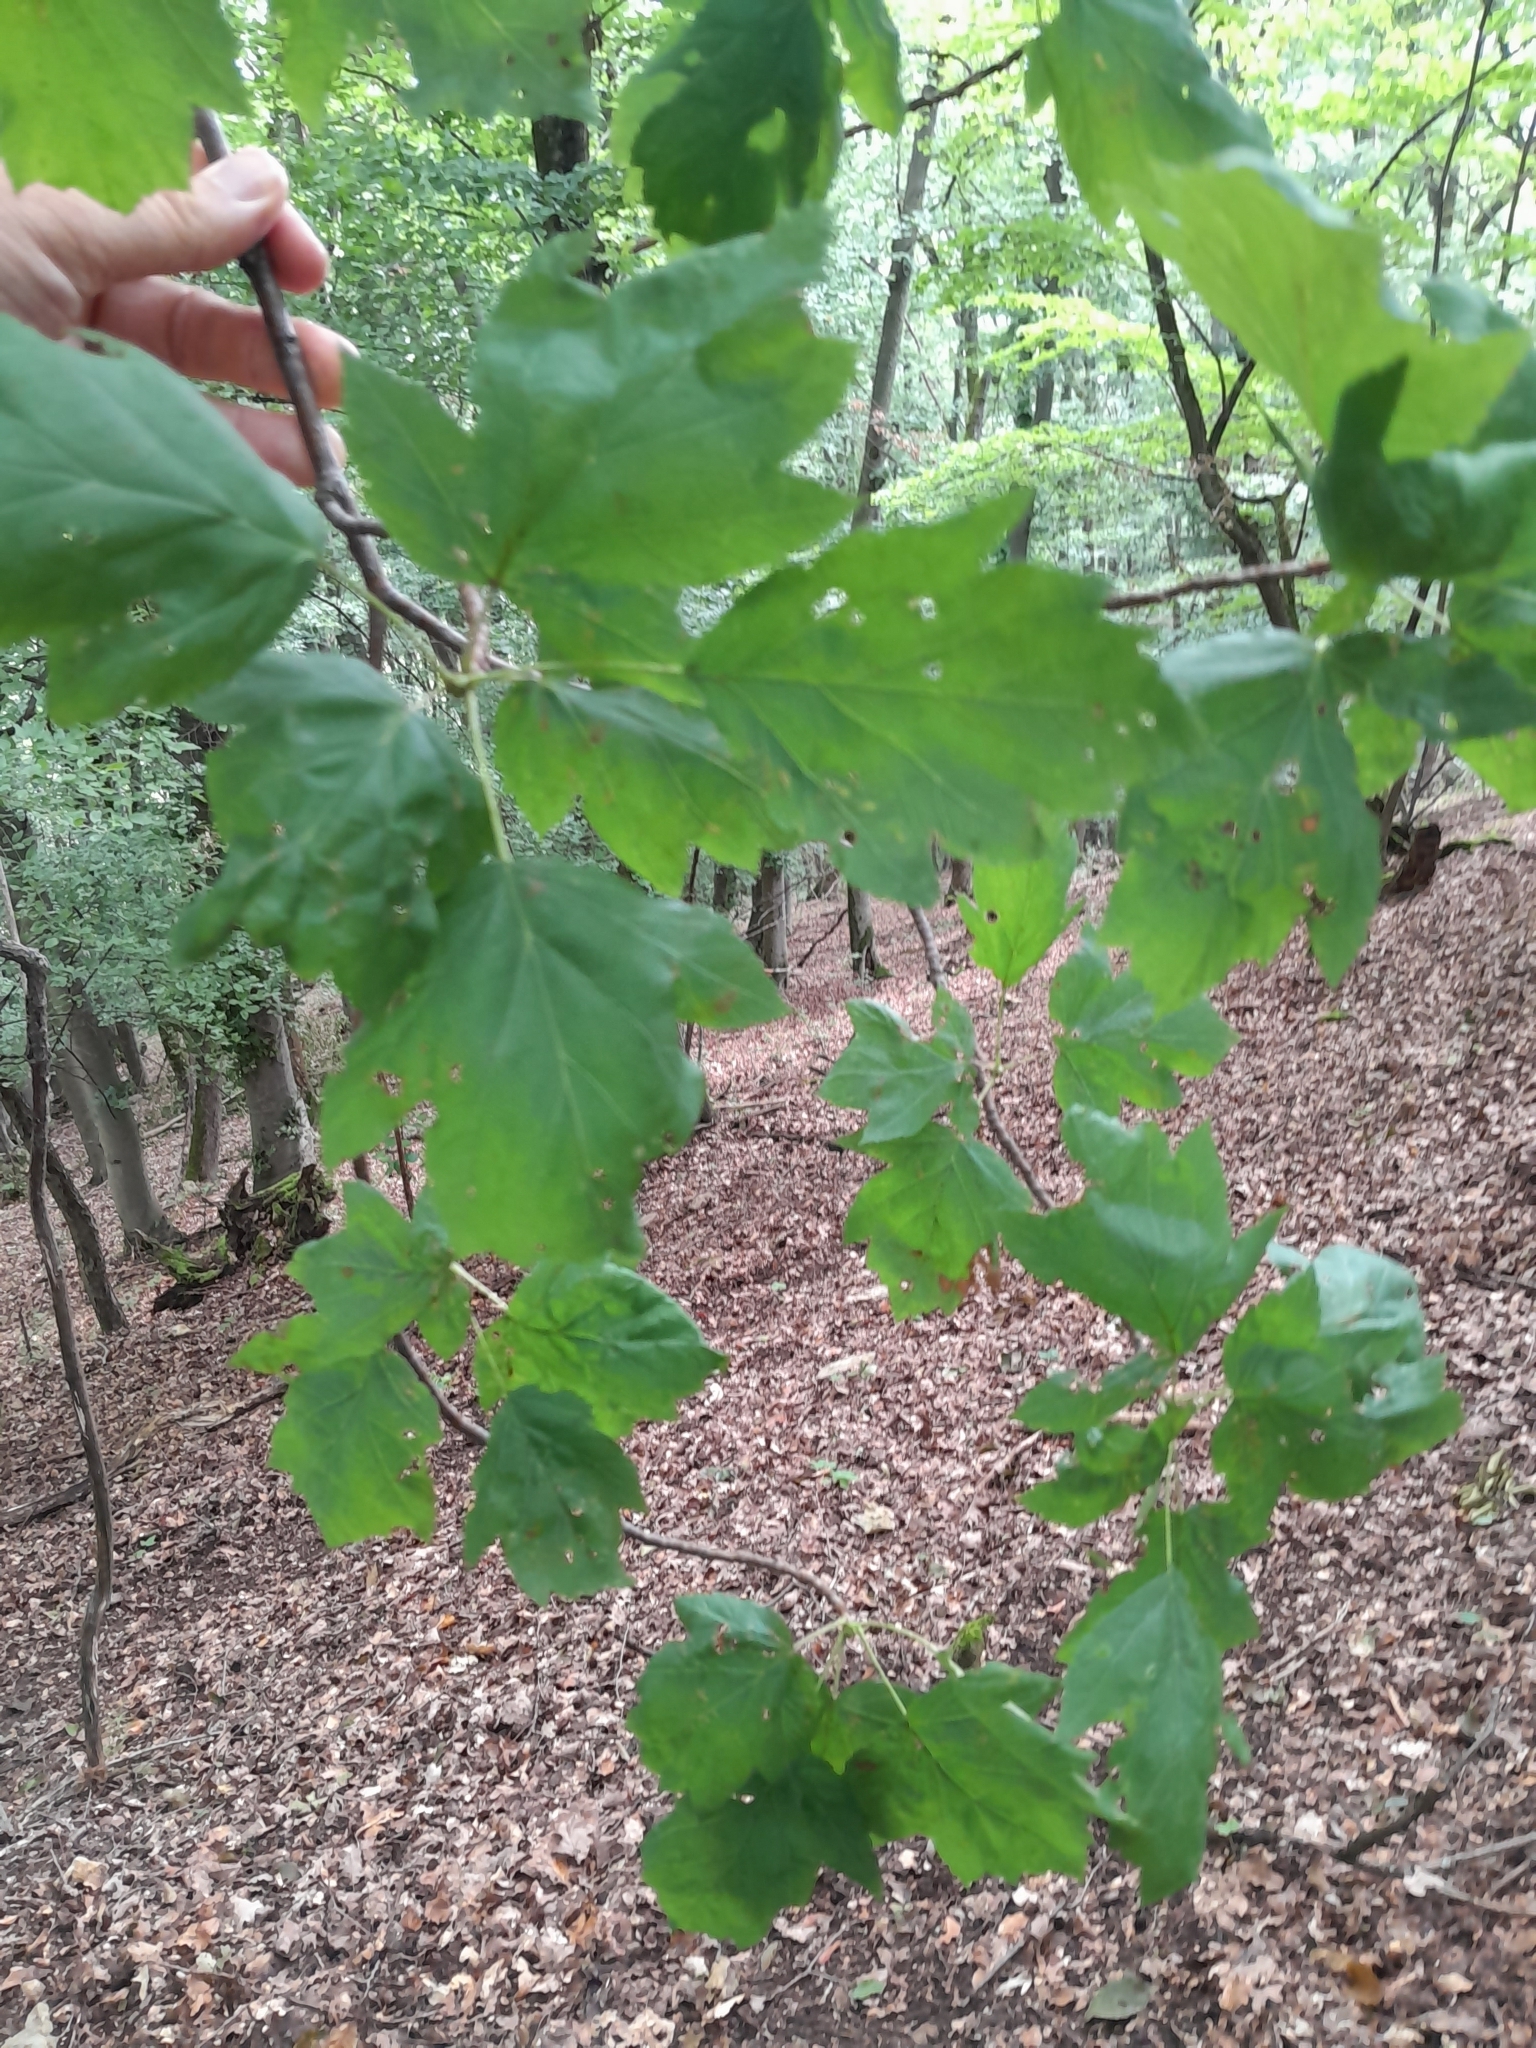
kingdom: Plantae
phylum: Tracheophyta
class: Magnoliopsida
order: Rosales
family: Rosaceae
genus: Torminalis
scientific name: Torminalis glaberrima
